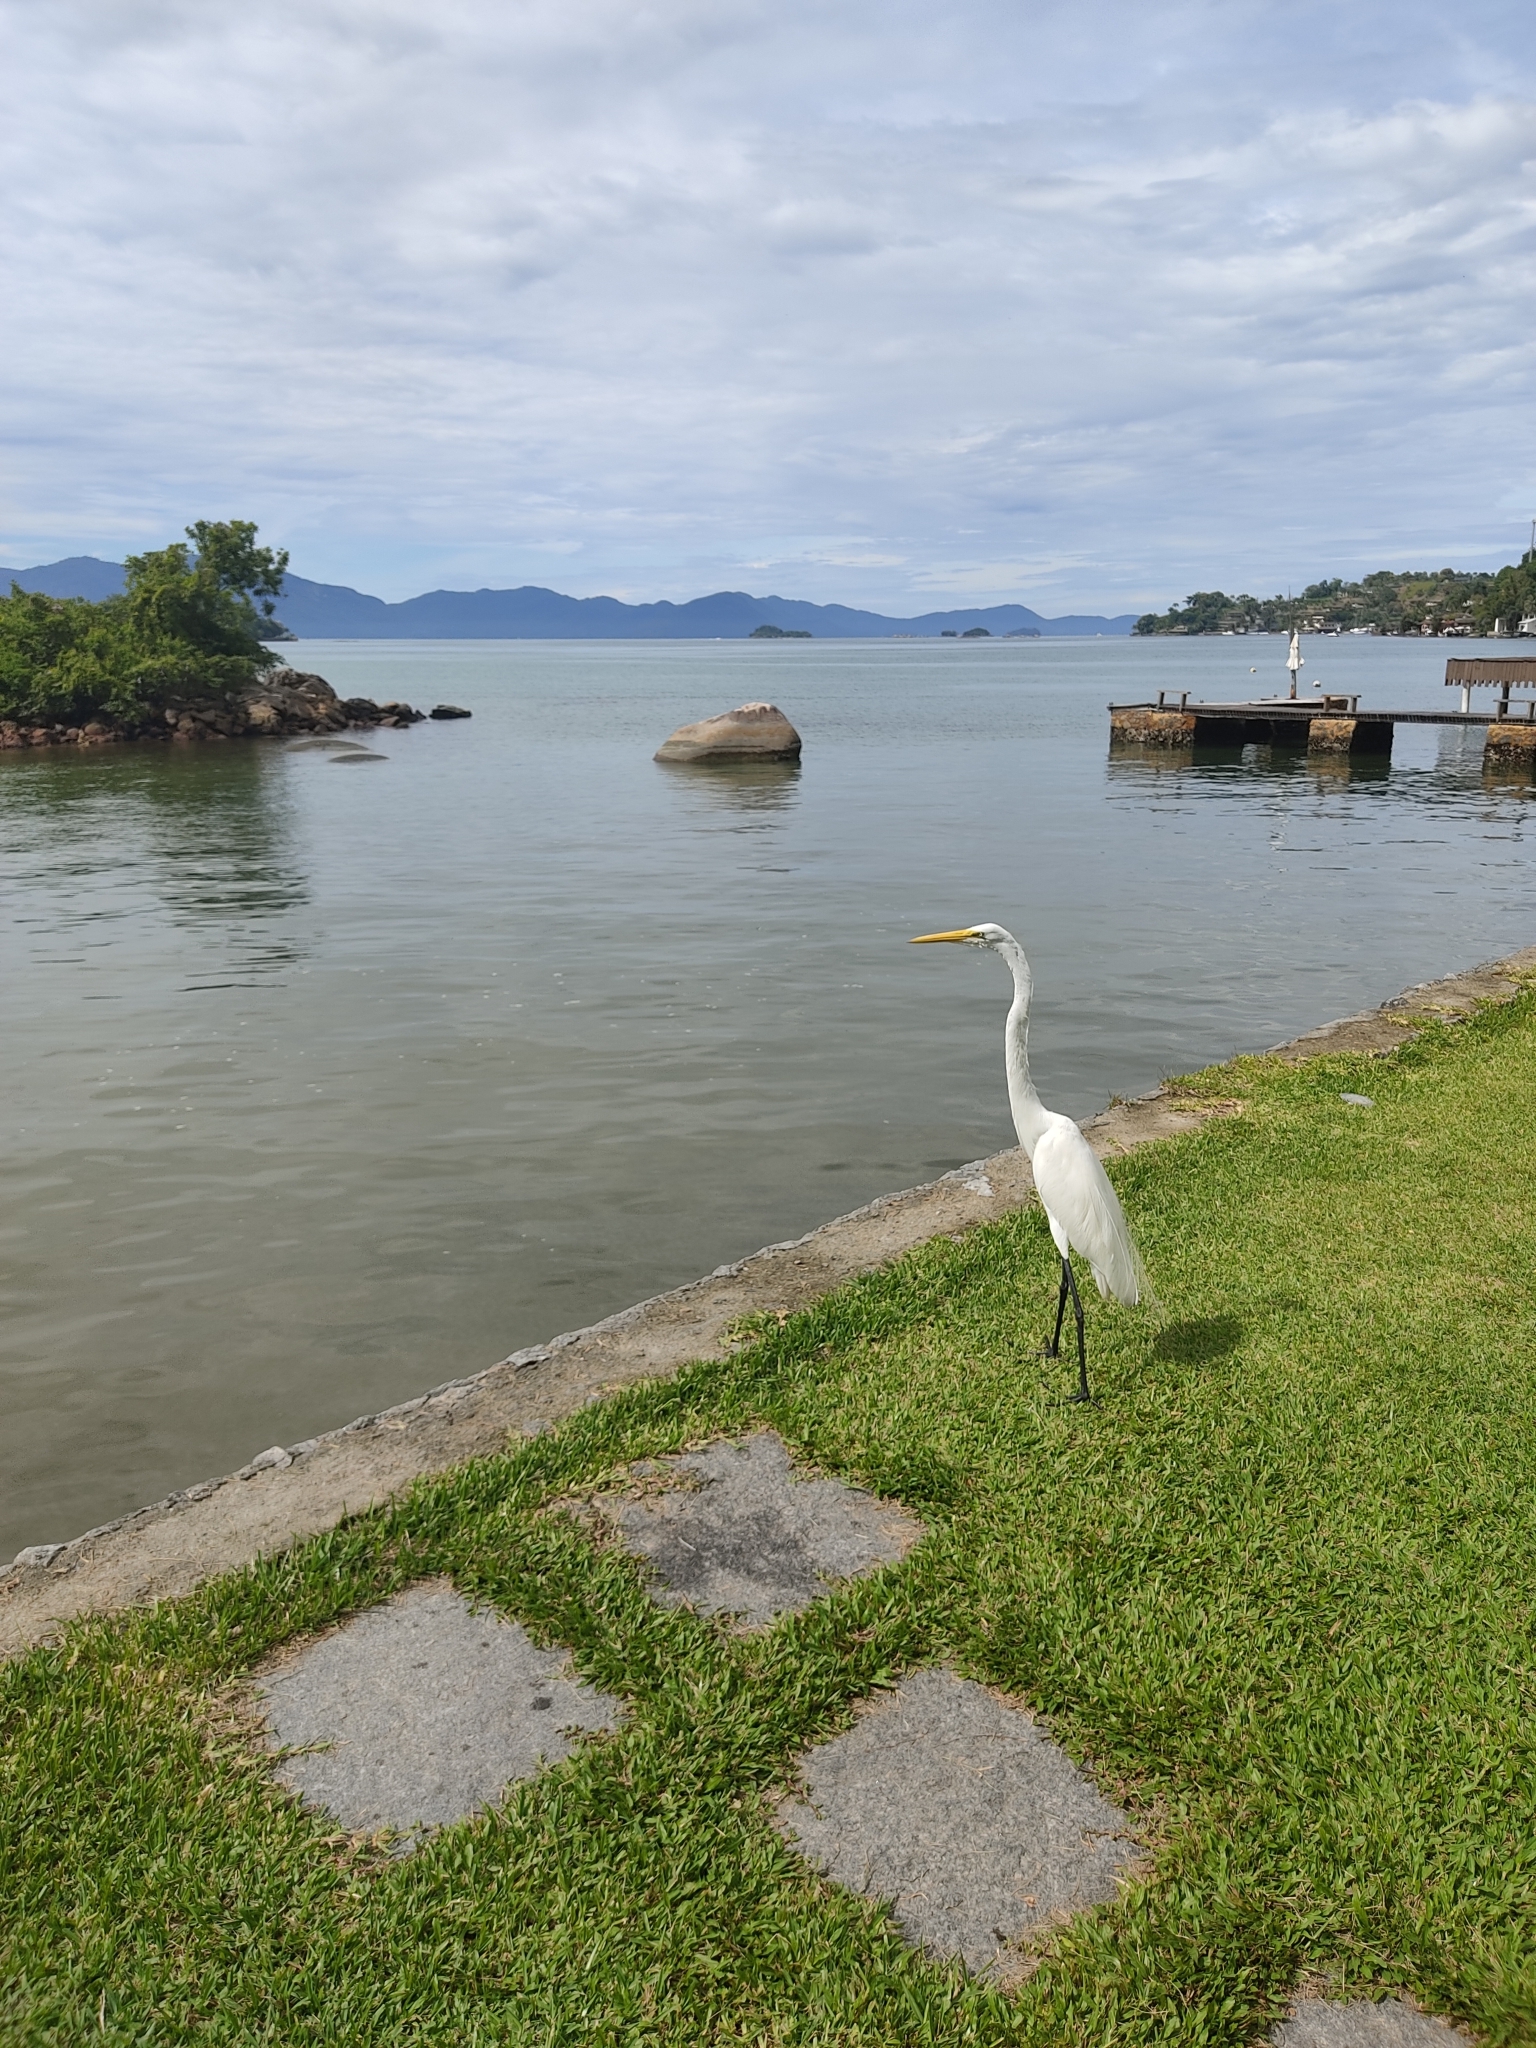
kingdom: Animalia
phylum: Chordata
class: Aves
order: Pelecaniformes
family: Ardeidae
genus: Ardea
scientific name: Ardea alba
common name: Great egret
